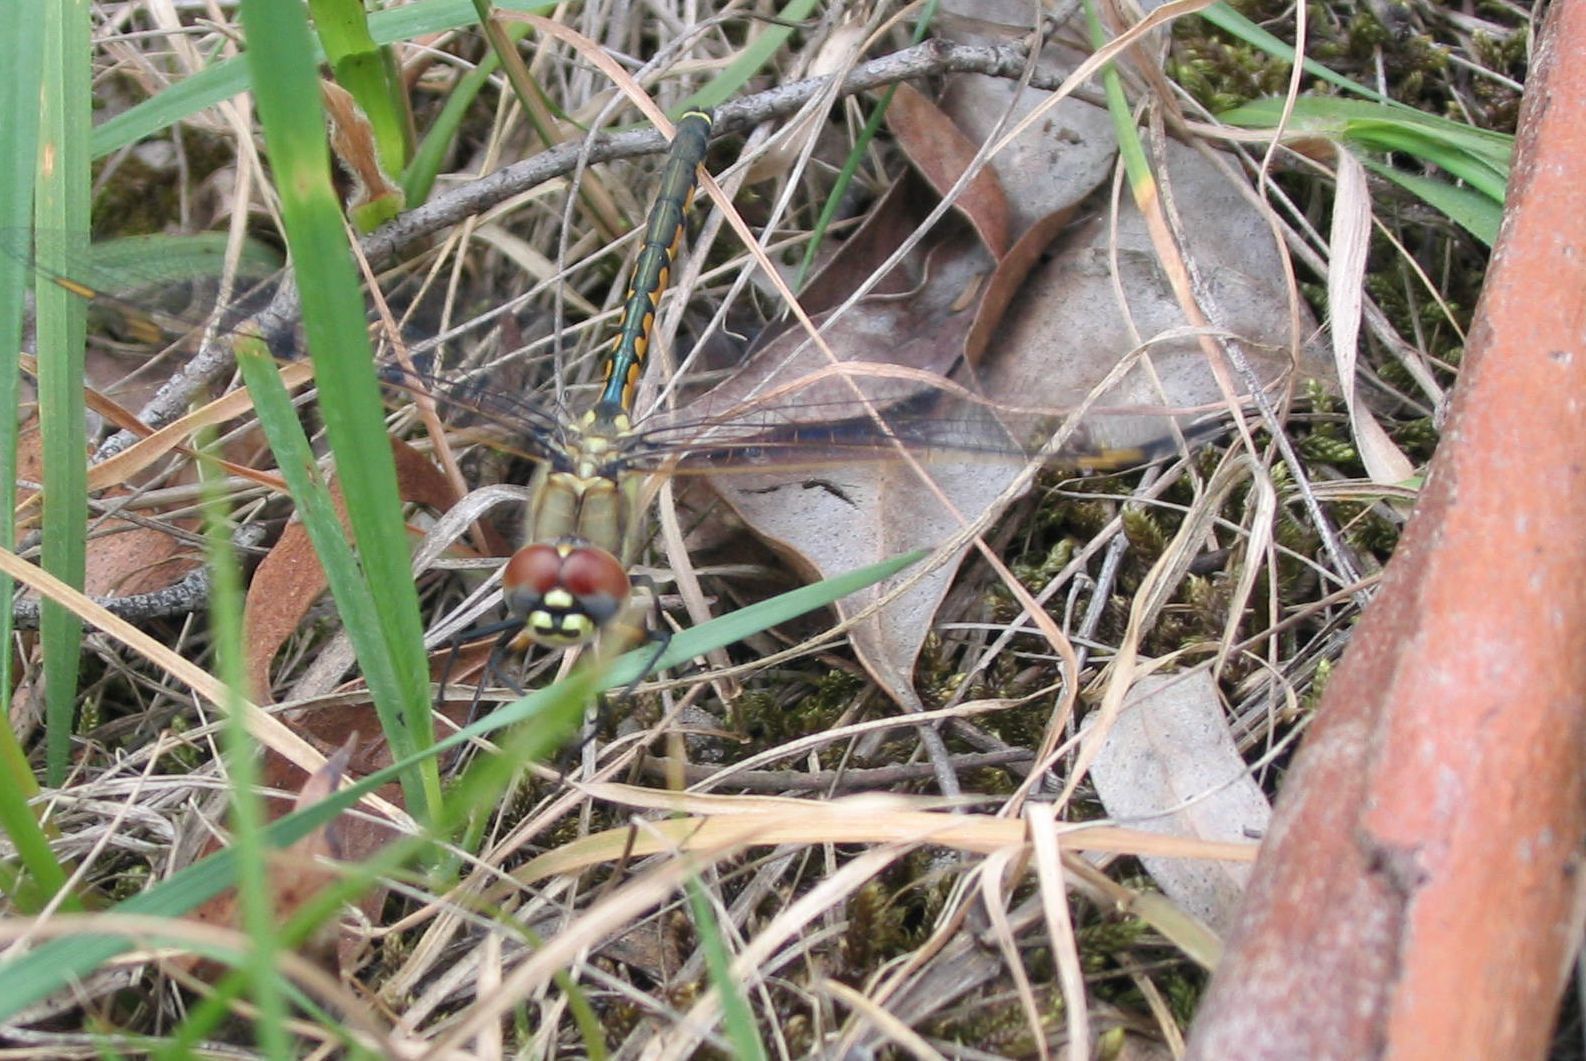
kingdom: Animalia
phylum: Arthropoda
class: Insecta
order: Odonata
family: Corduliidae
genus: Hemicordulia
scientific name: Hemicordulia tau
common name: Tau emerald
